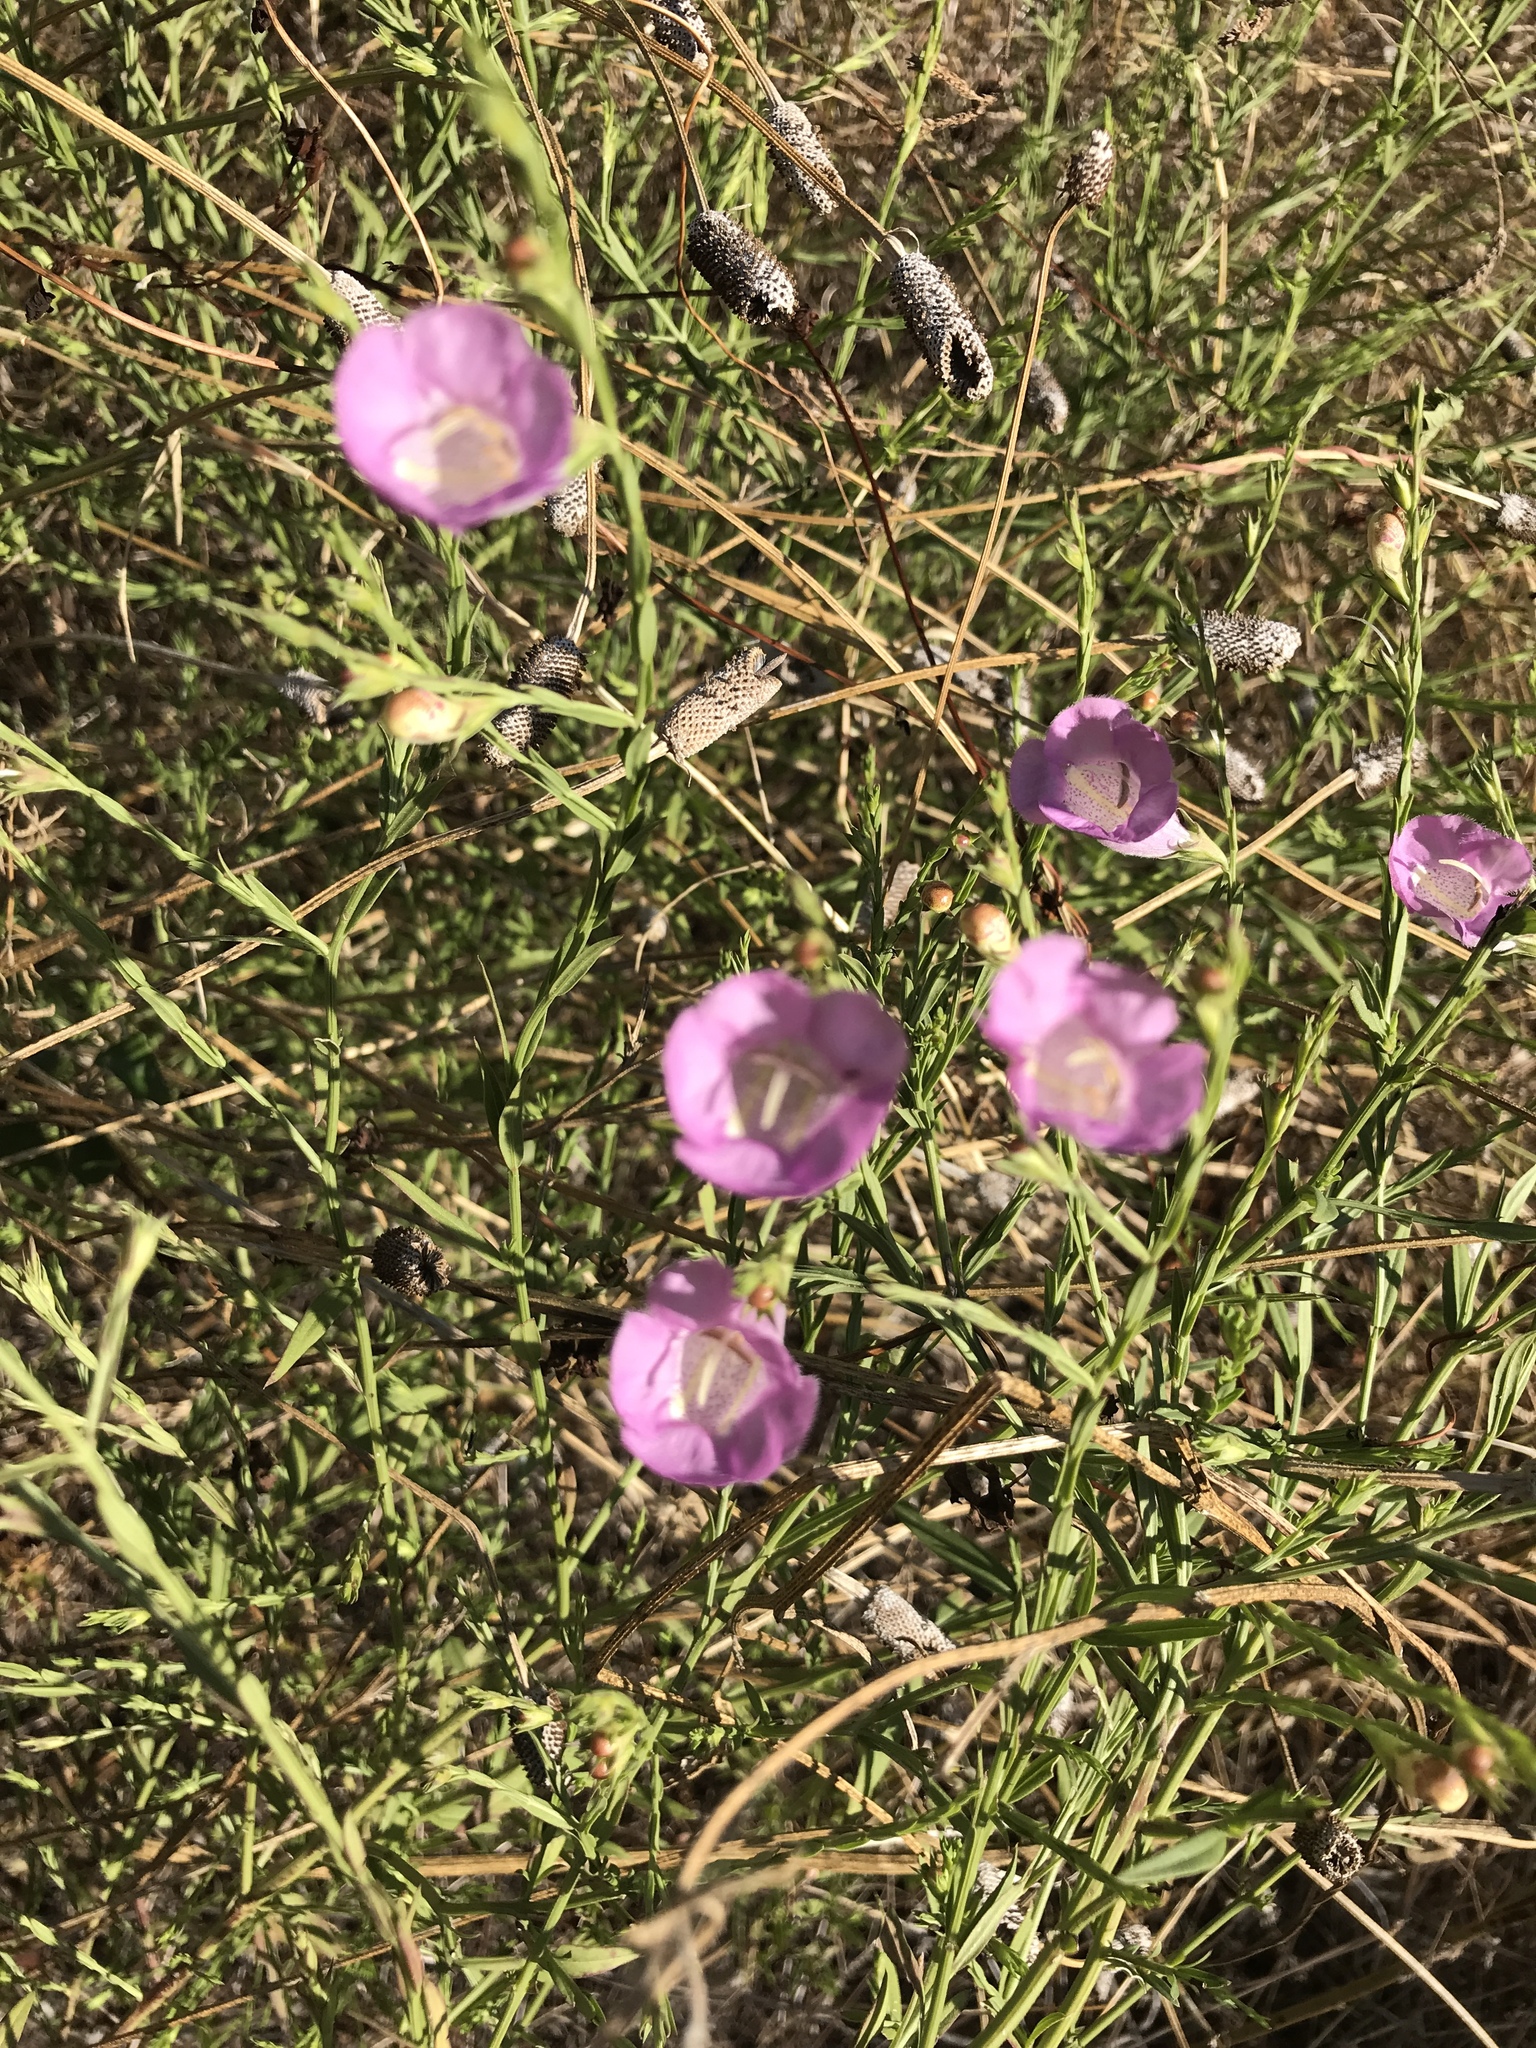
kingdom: Plantae
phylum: Tracheophyta
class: Magnoliopsida
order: Lamiales
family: Orobanchaceae
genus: Agalinis
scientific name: Agalinis heterophylla
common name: Prairie agalinis
